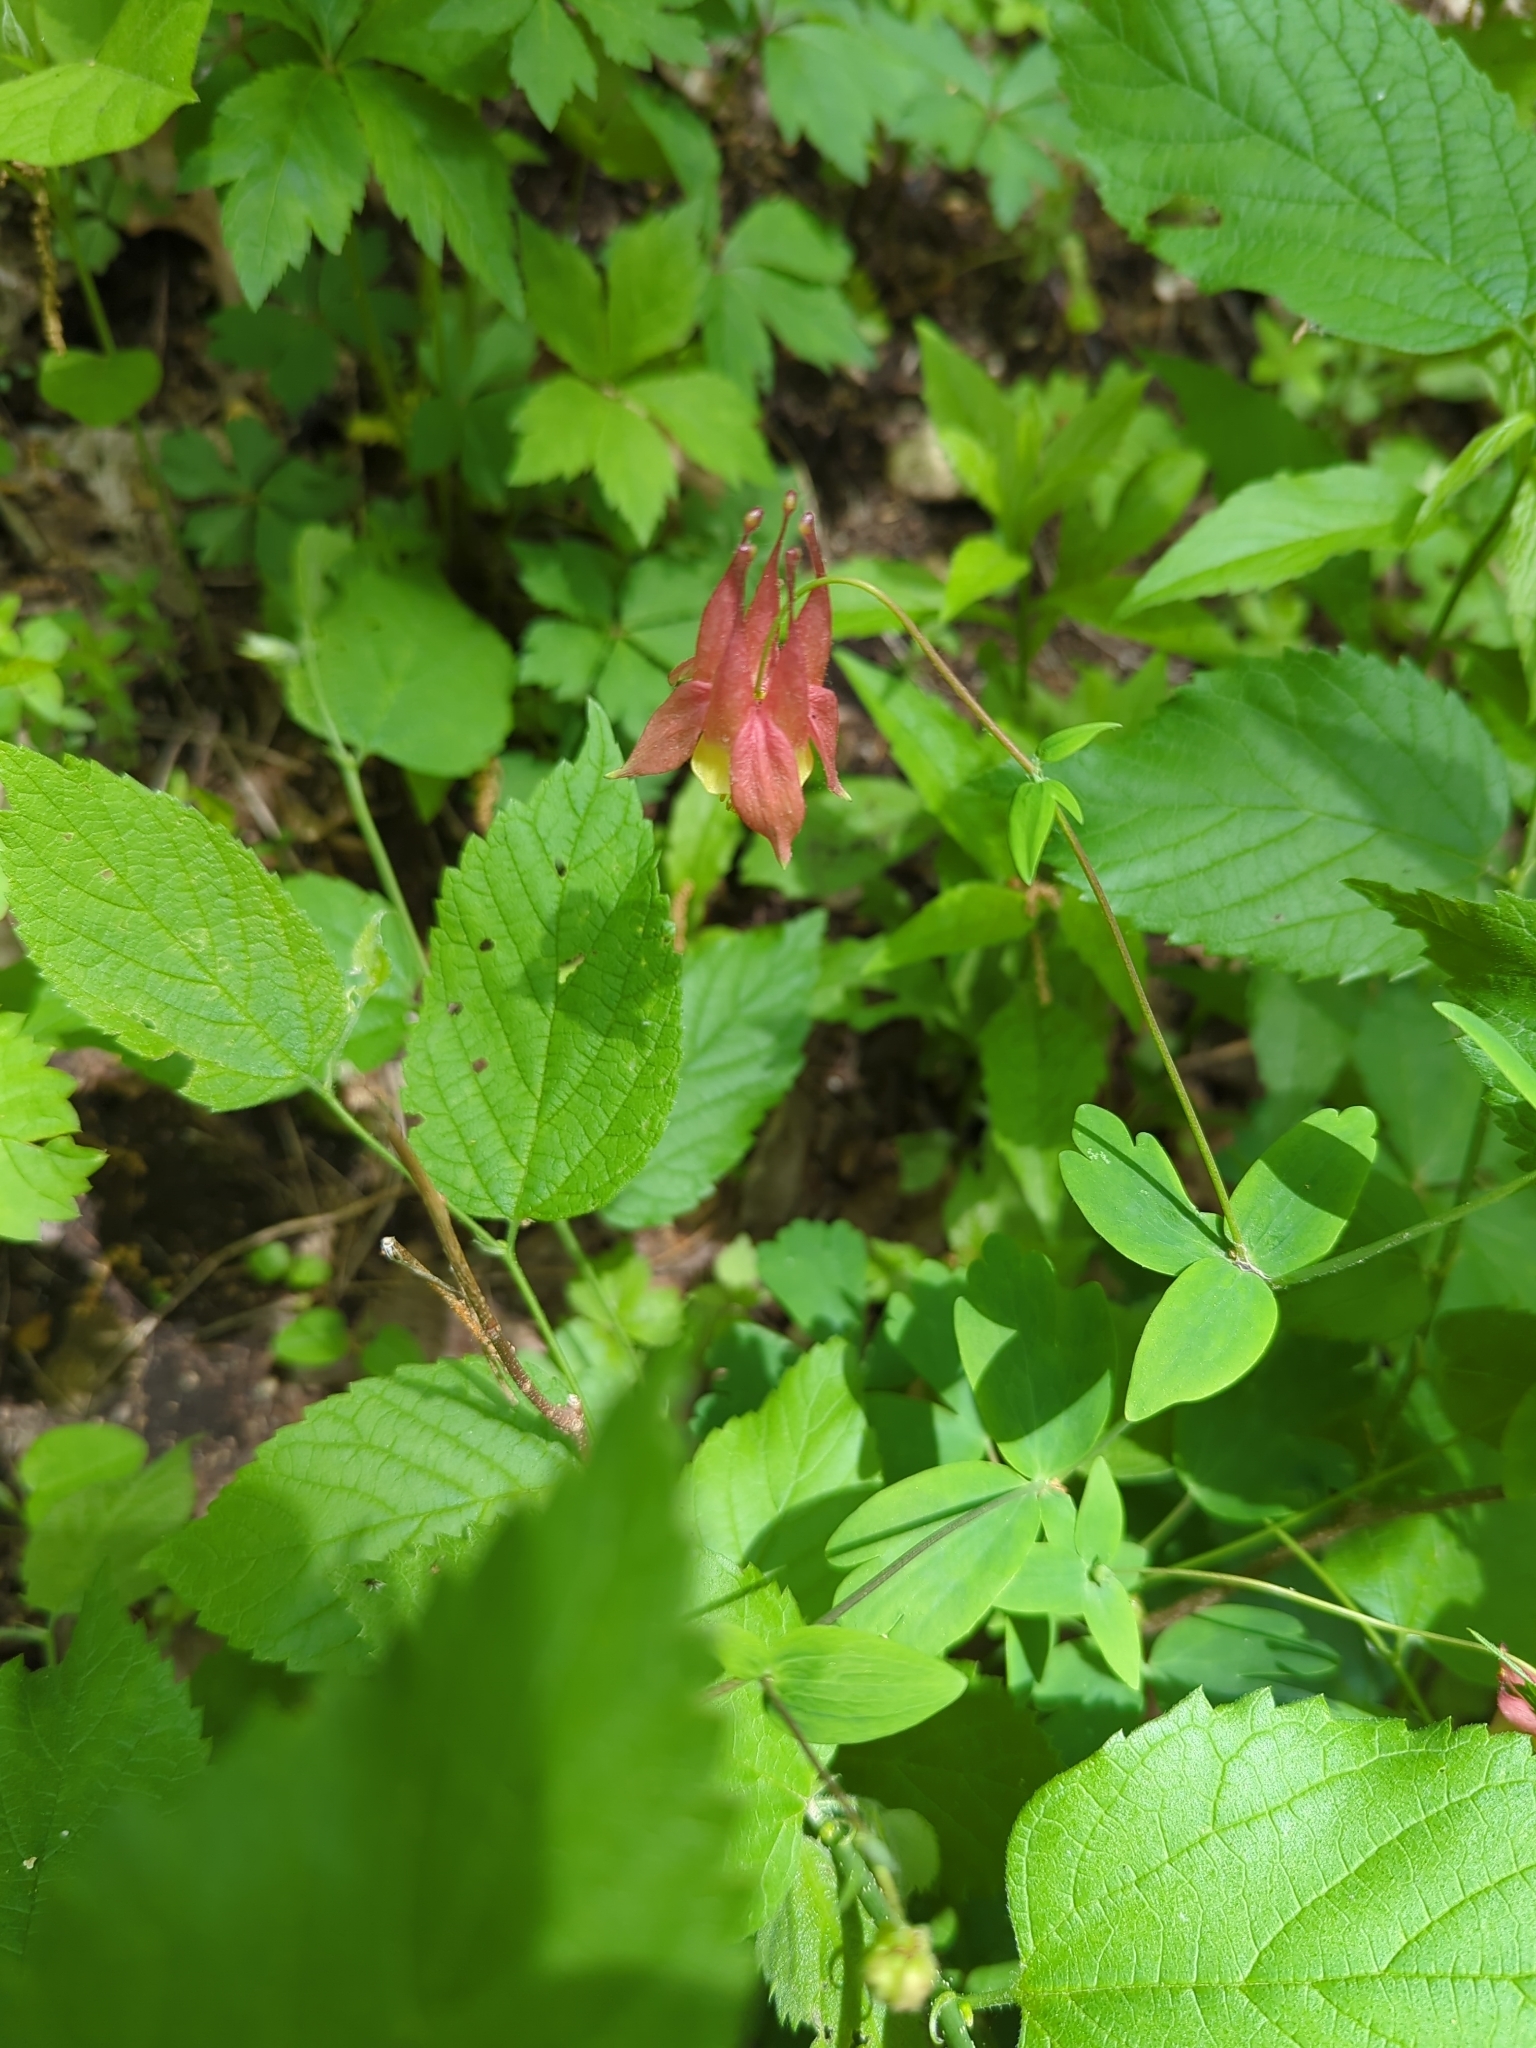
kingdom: Plantae
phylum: Tracheophyta
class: Magnoliopsida
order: Ranunculales
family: Ranunculaceae
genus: Aquilegia
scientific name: Aquilegia canadensis
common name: American columbine
